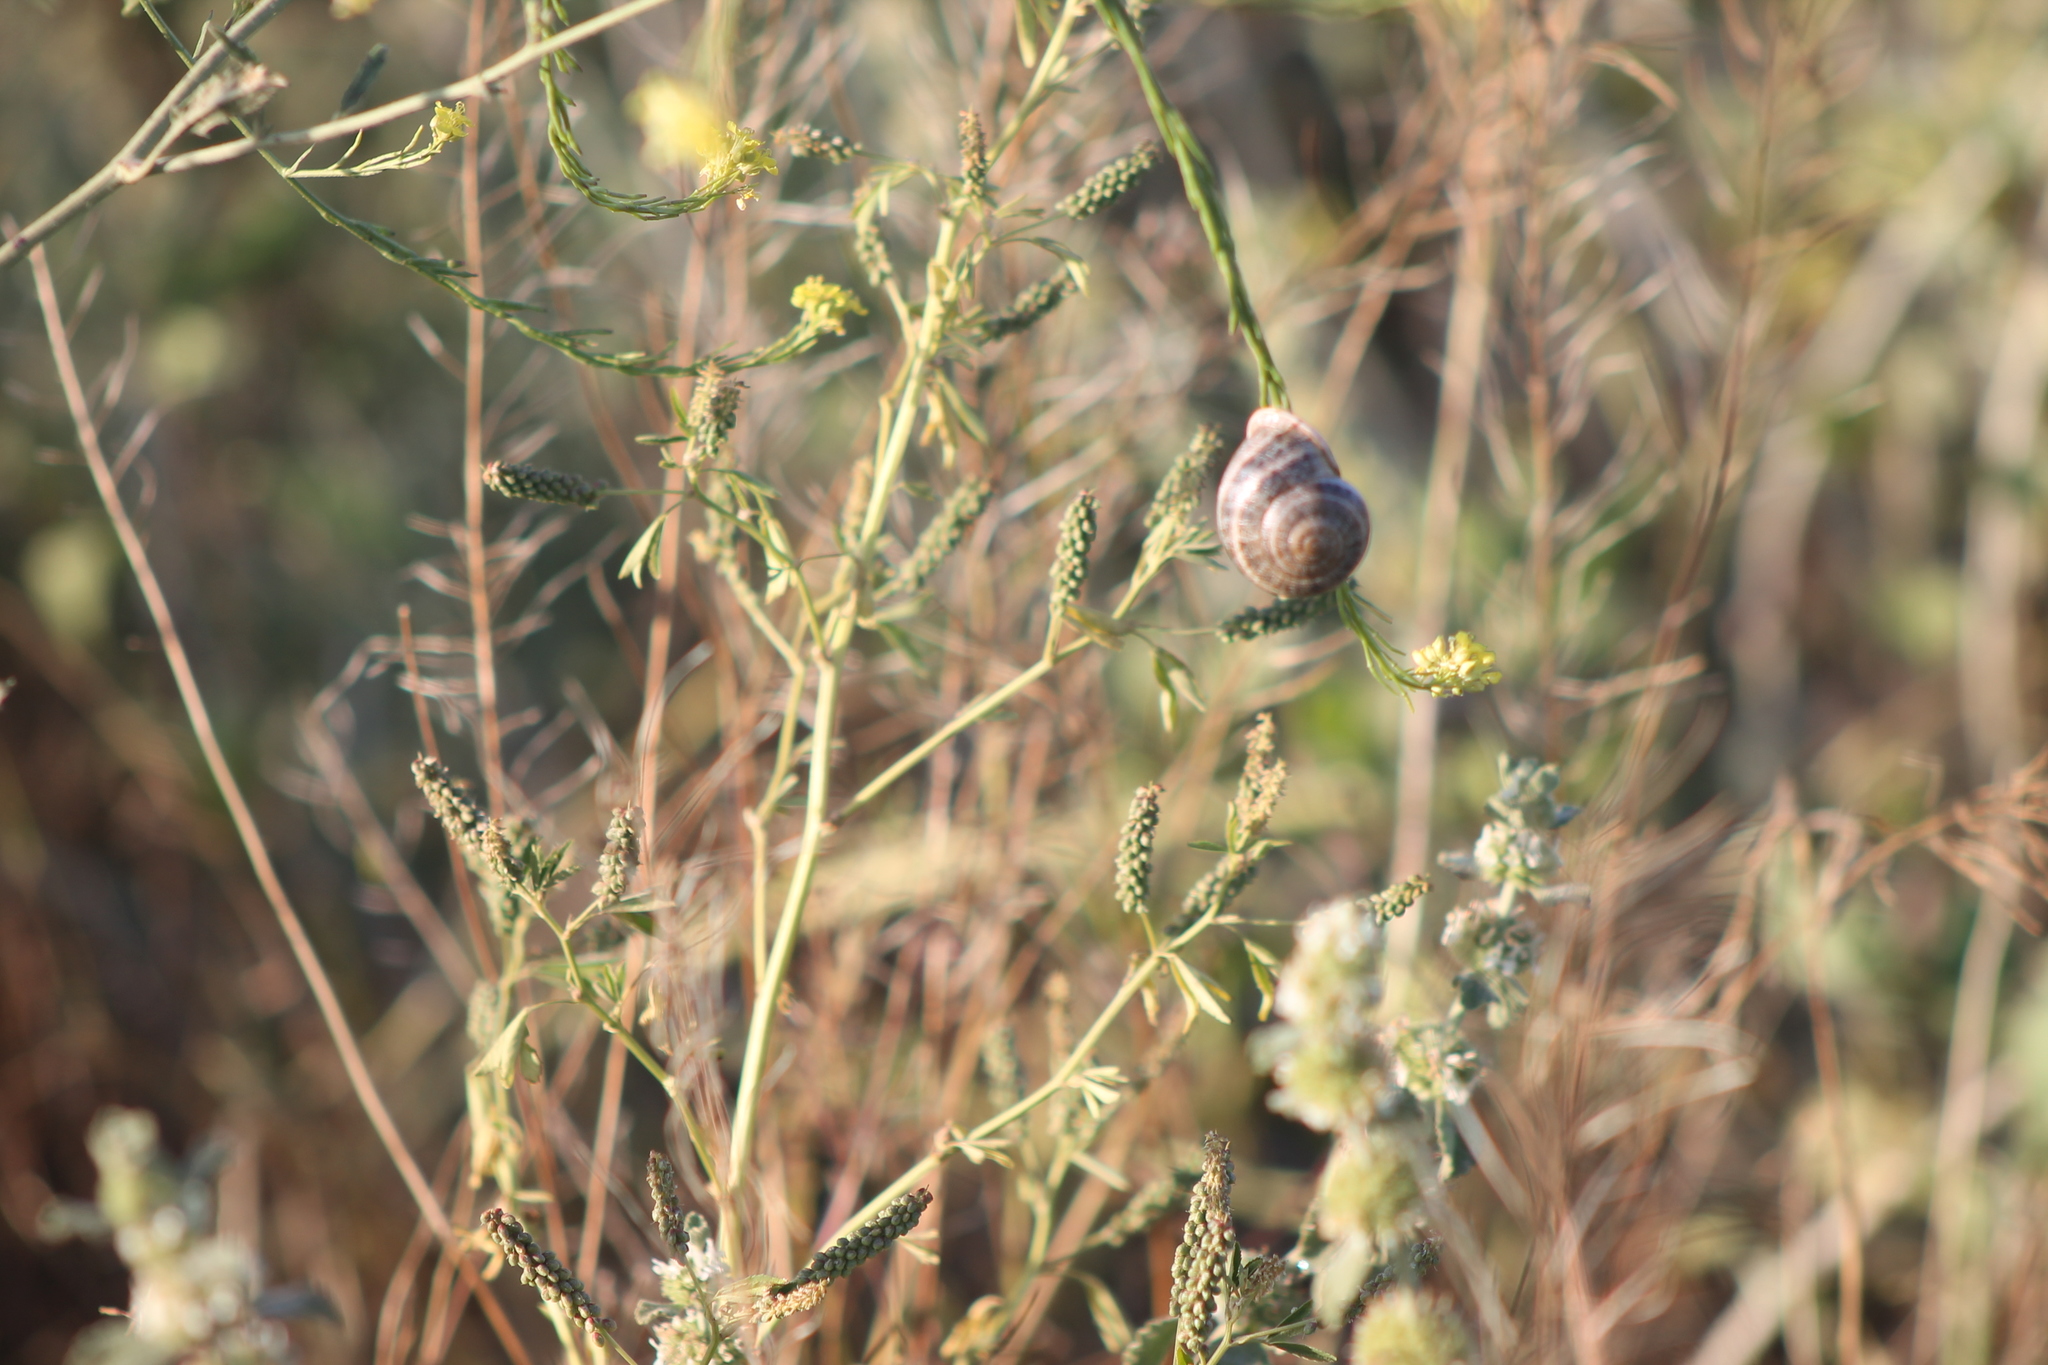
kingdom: Animalia
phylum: Mollusca
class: Gastropoda
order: Stylommatophora
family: Helicidae
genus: Otala
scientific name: Otala lactea
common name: Milk snail
